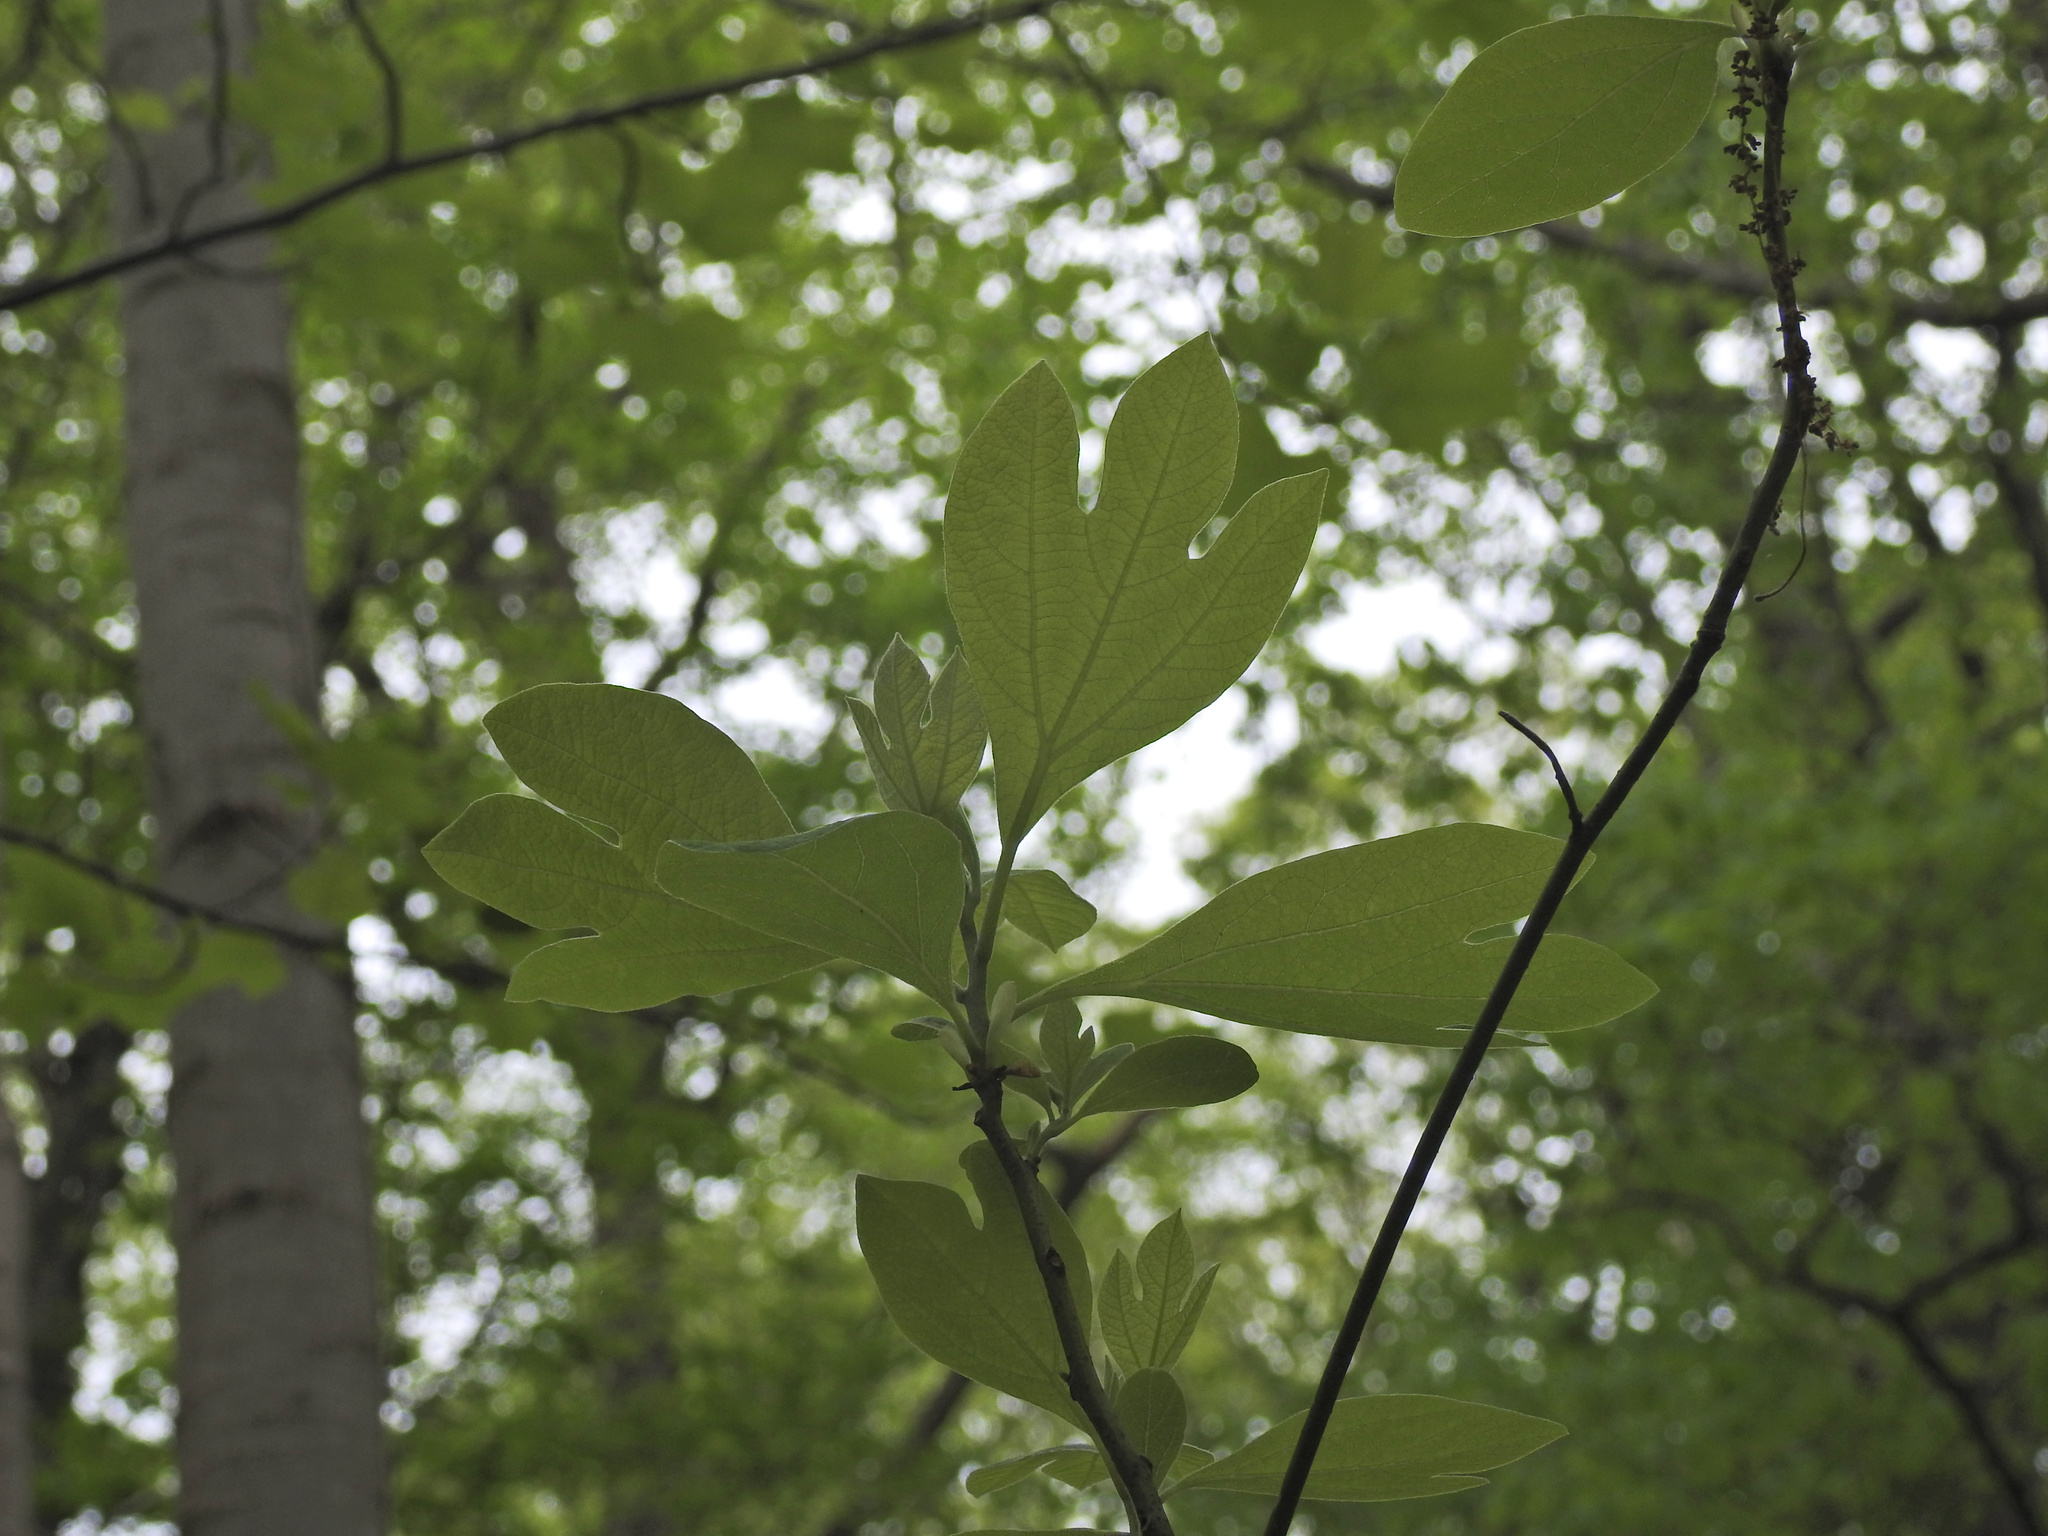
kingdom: Plantae
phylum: Tracheophyta
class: Magnoliopsida
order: Laurales
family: Lauraceae
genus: Sassafras
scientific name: Sassafras albidum
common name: Sassafras
